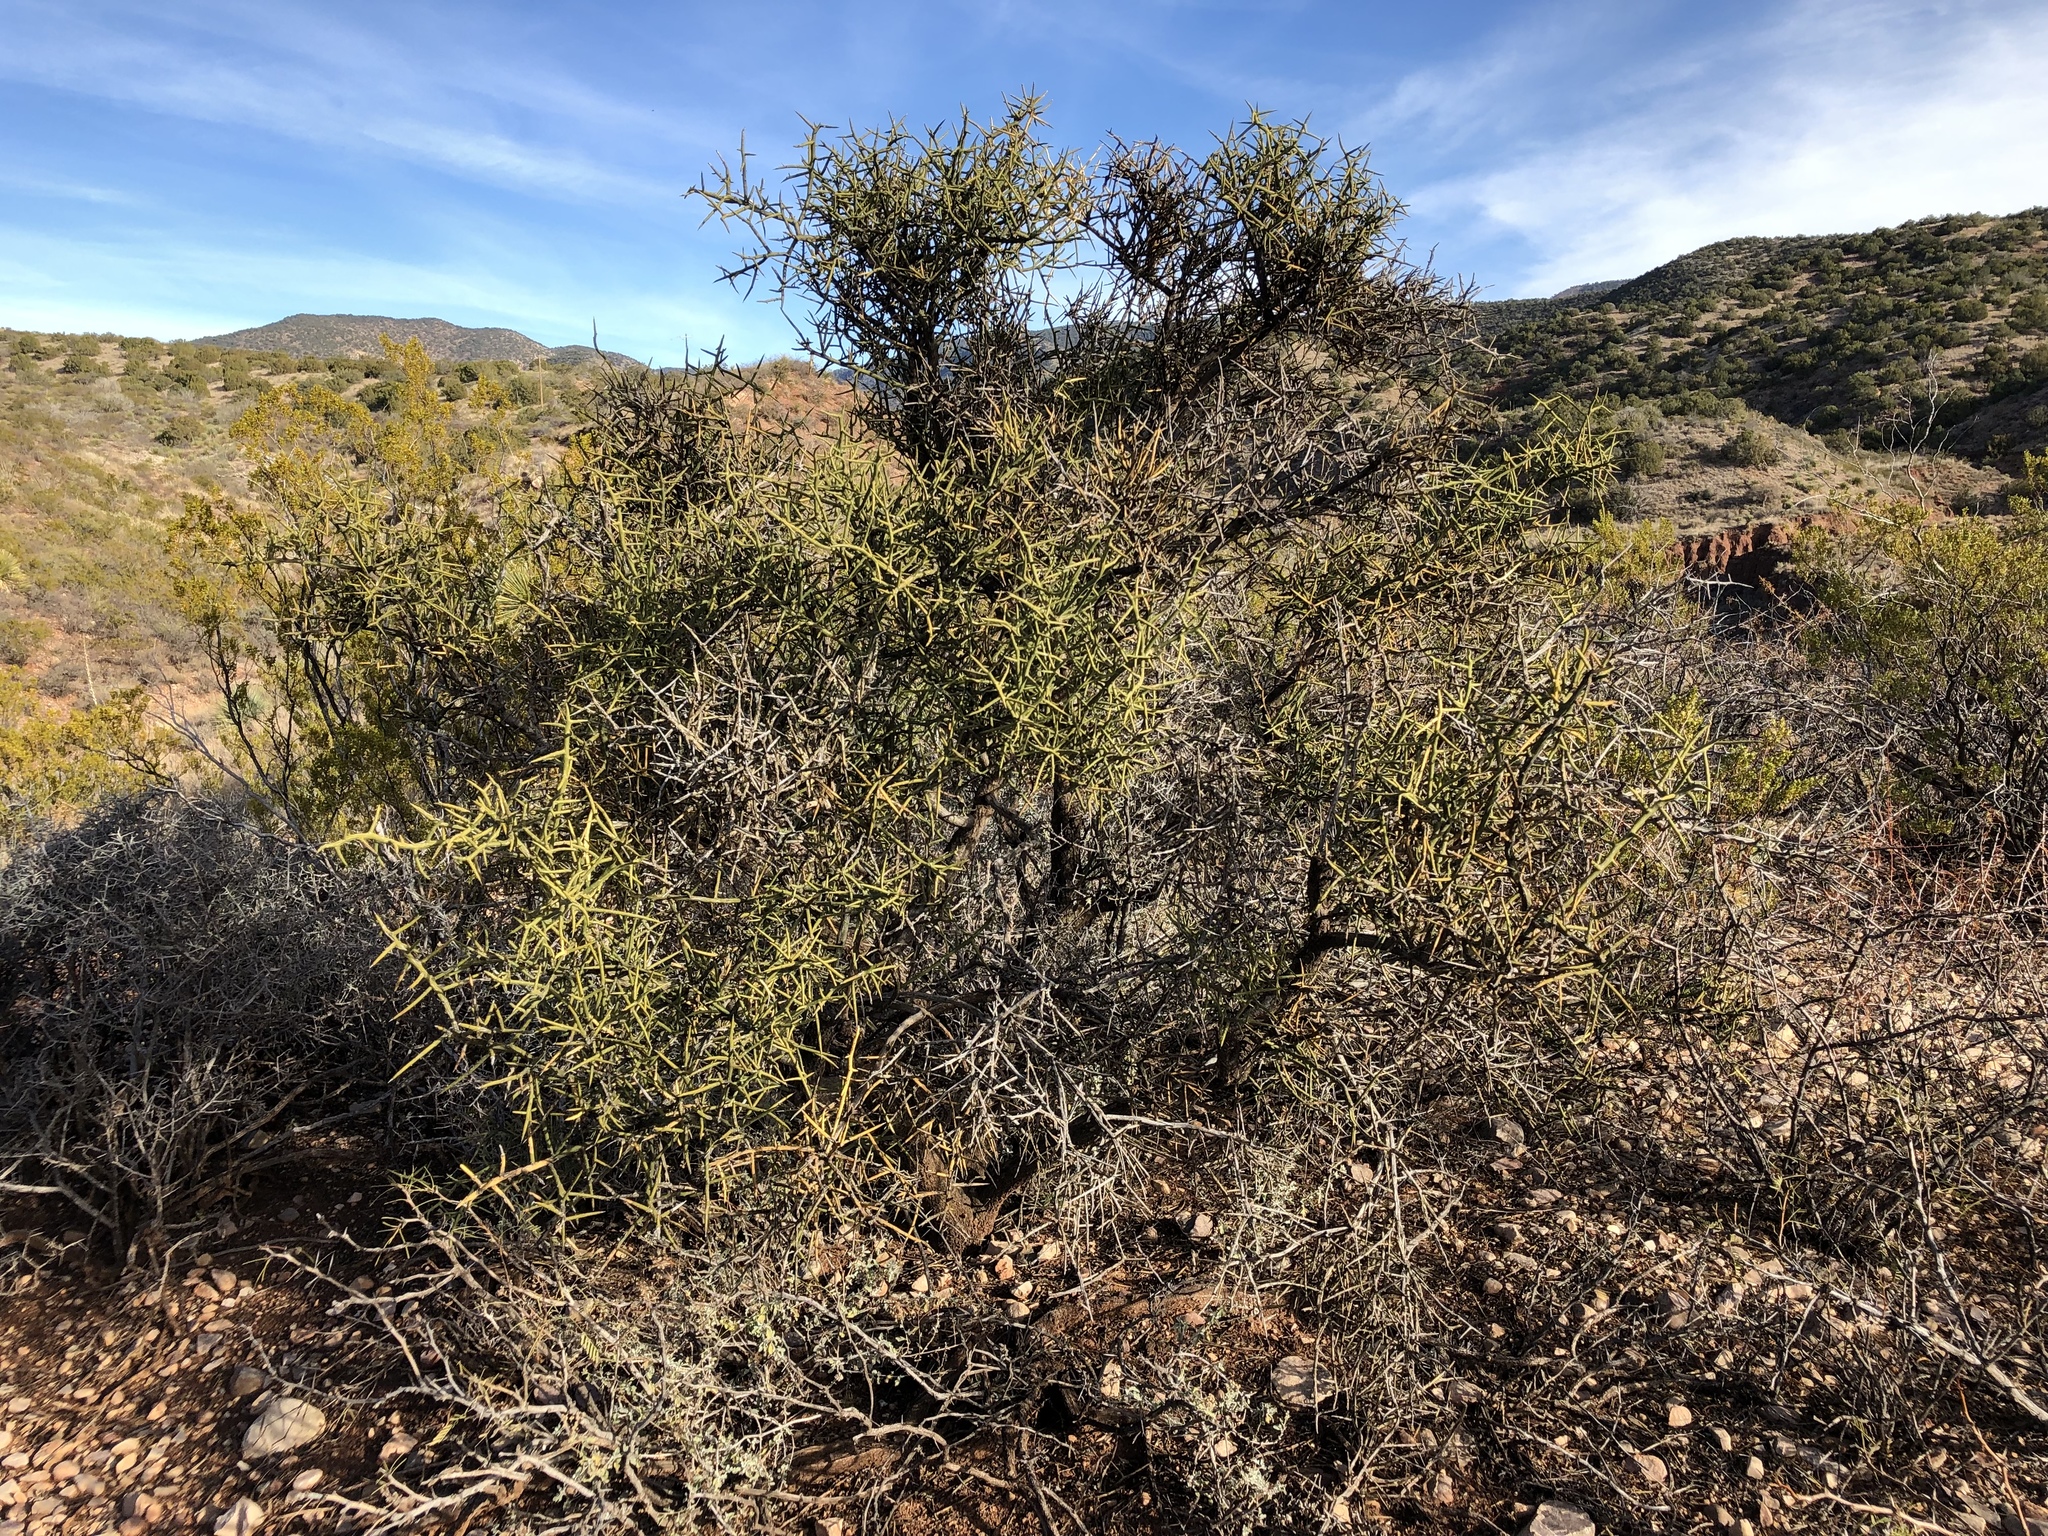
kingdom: Plantae
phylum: Tracheophyta
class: Magnoliopsida
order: Brassicales
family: Koeberliniaceae
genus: Koeberlinia
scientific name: Koeberlinia spinosa
